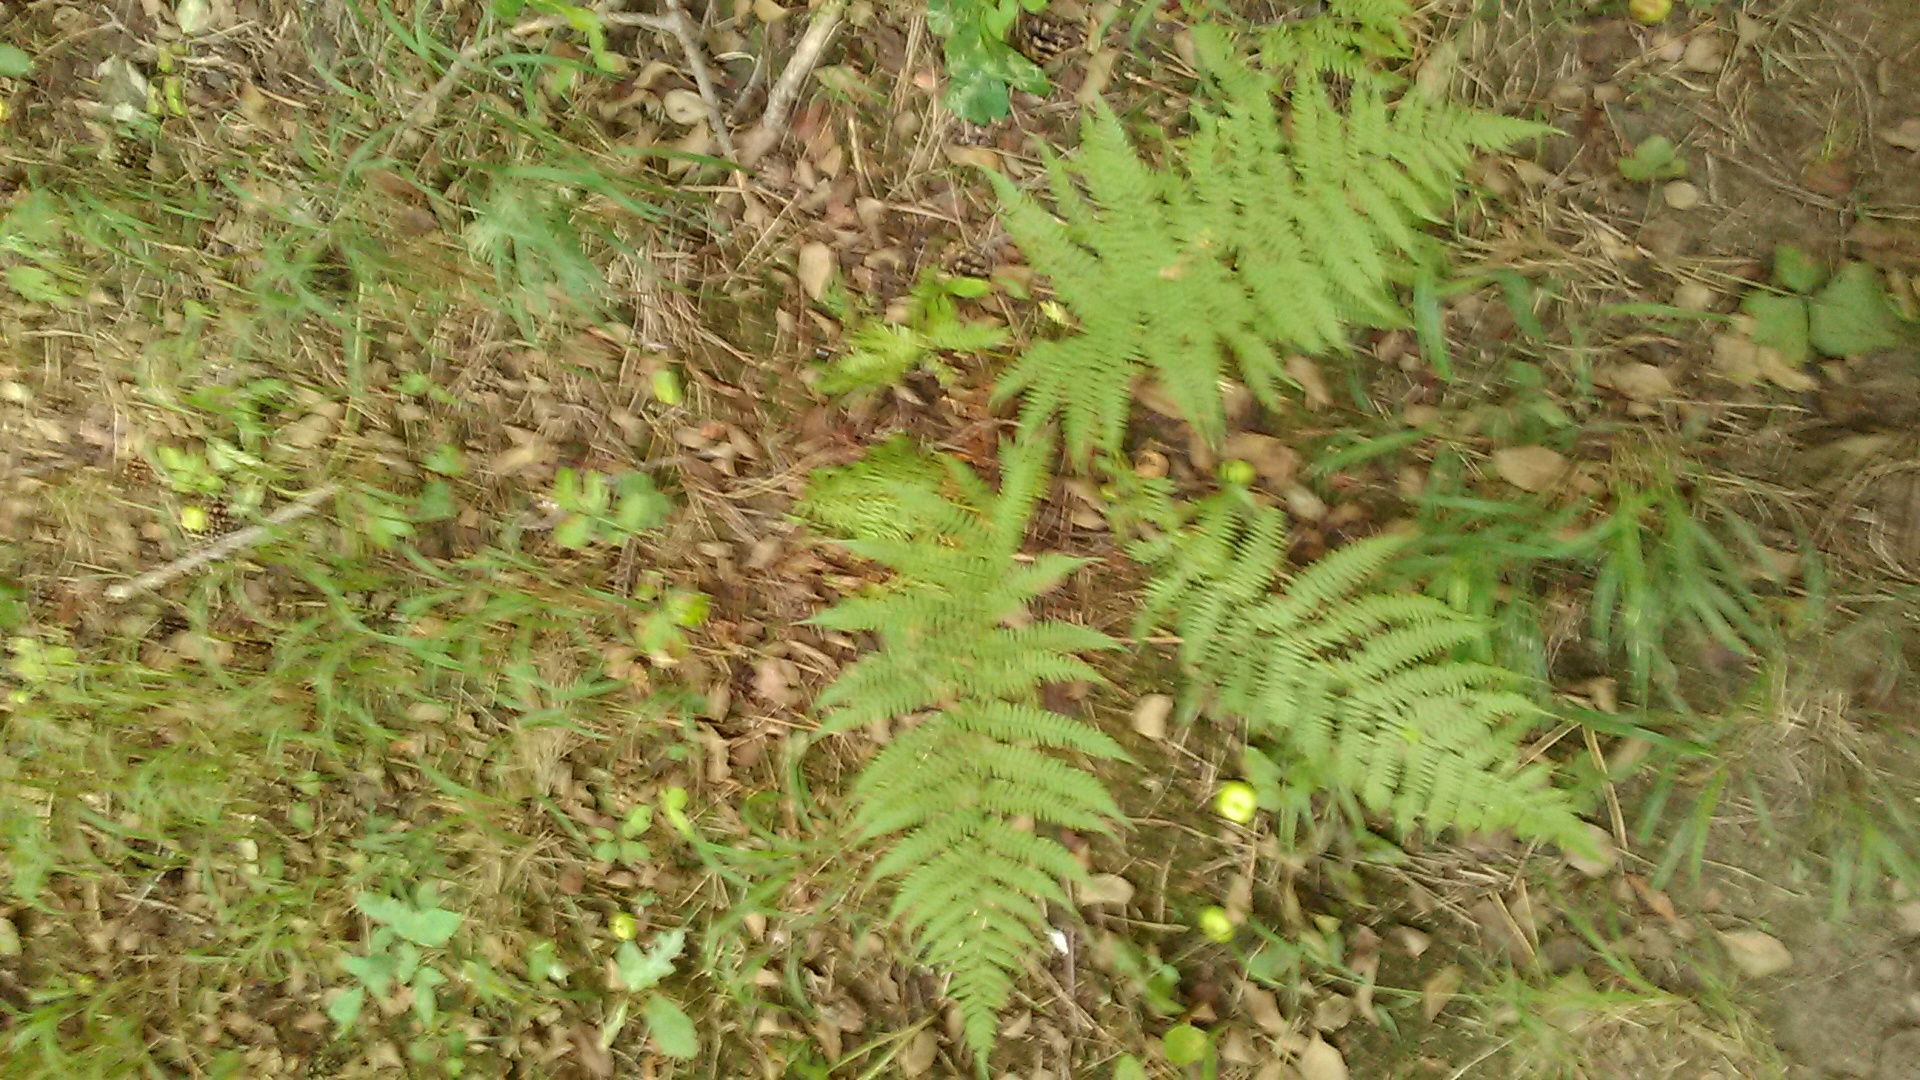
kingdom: Plantae
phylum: Tracheophyta
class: Polypodiopsida
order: Polypodiales
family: Athyriaceae
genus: Athyrium
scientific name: Athyrium filix-femina
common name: Lady fern
